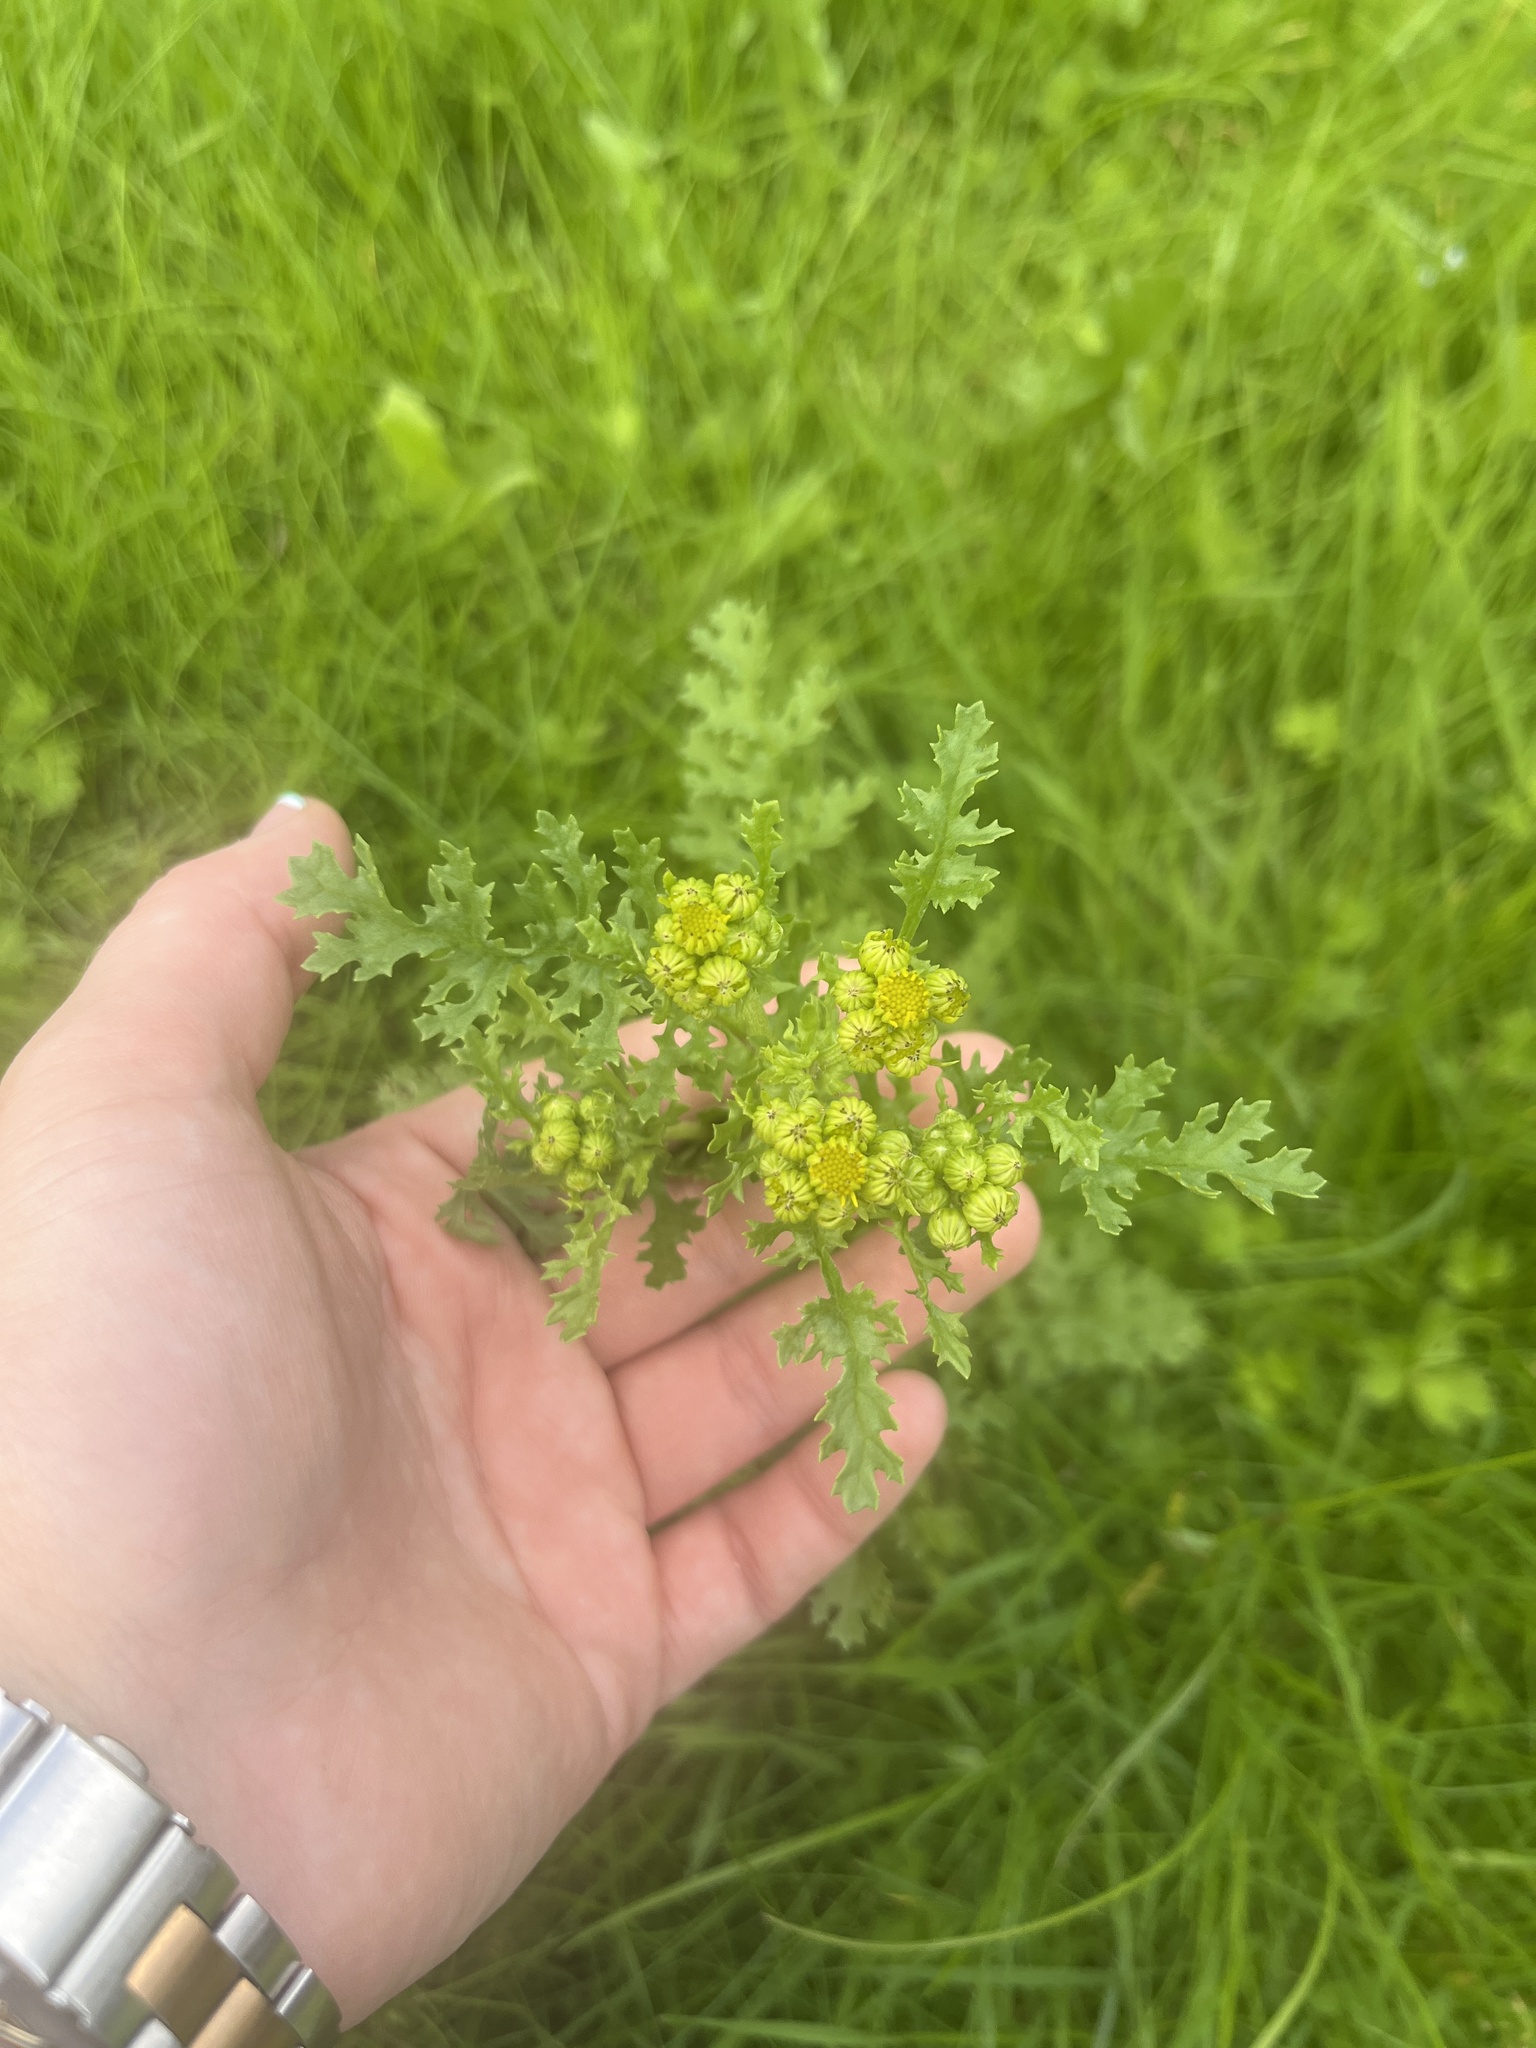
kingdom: Plantae
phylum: Tracheophyta
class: Magnoliopsida
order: Asterales
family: Asteraceae
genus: Jacobaea
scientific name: Jacobaea vulgaris
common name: Stinking willie
